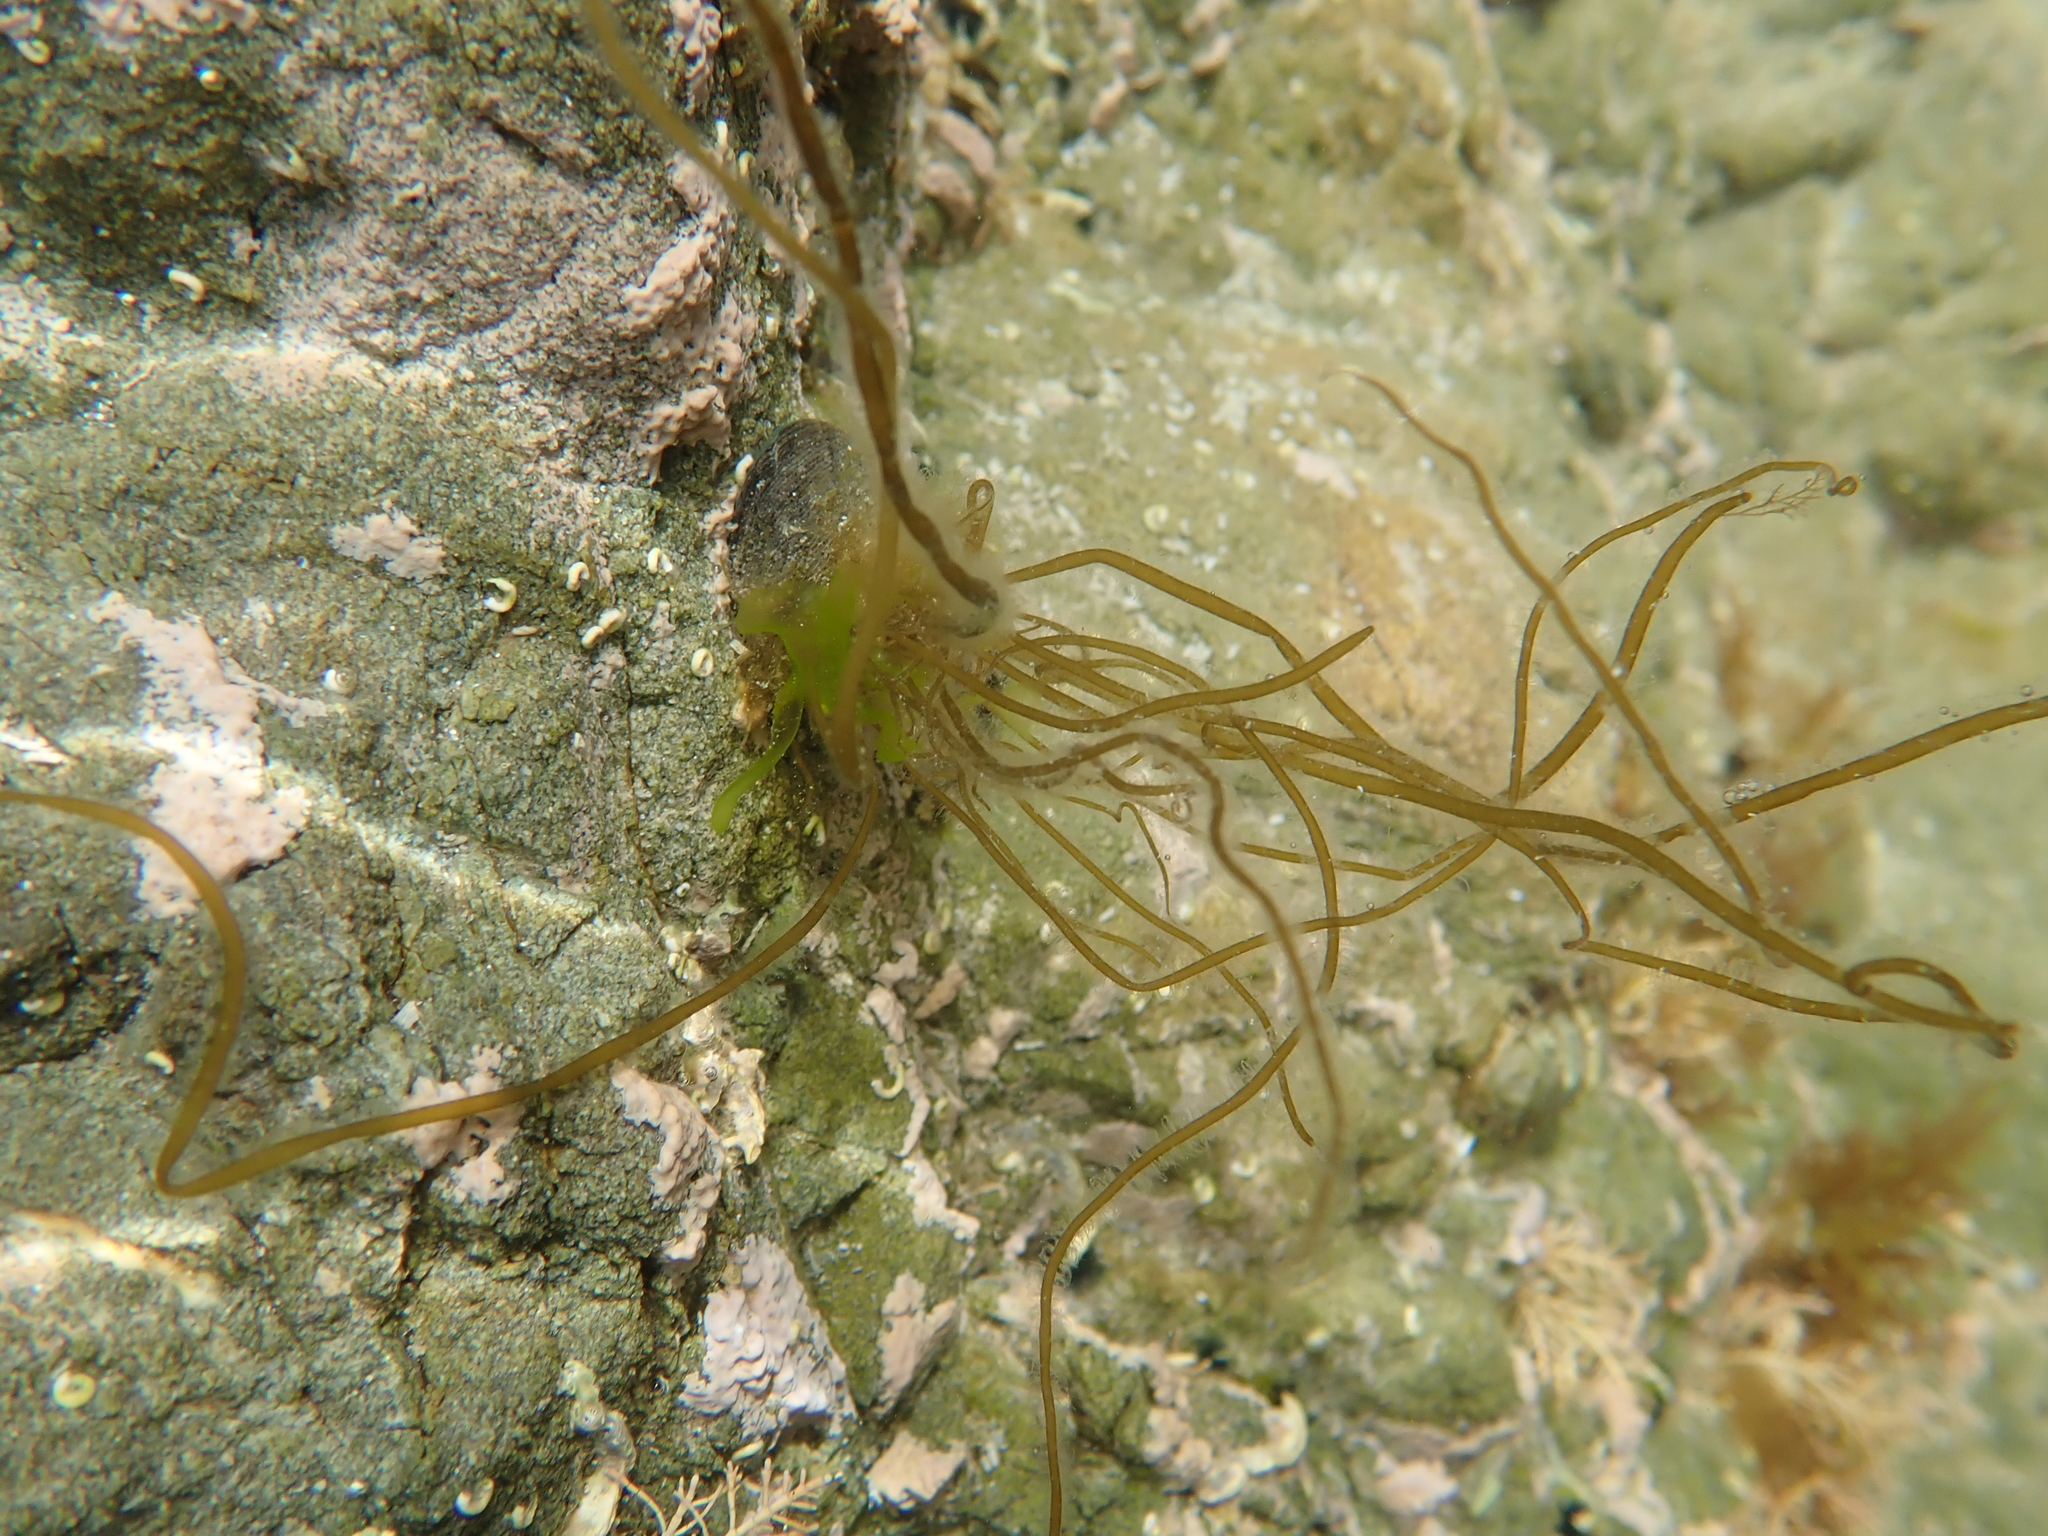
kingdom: Chromista
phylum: Ochrophyta
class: Phaeophyceae
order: Scytosiphonales
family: Scytosiphonaceae
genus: Scytosiphon
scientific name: Scytosiphon lomentaria
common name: Beanweed
